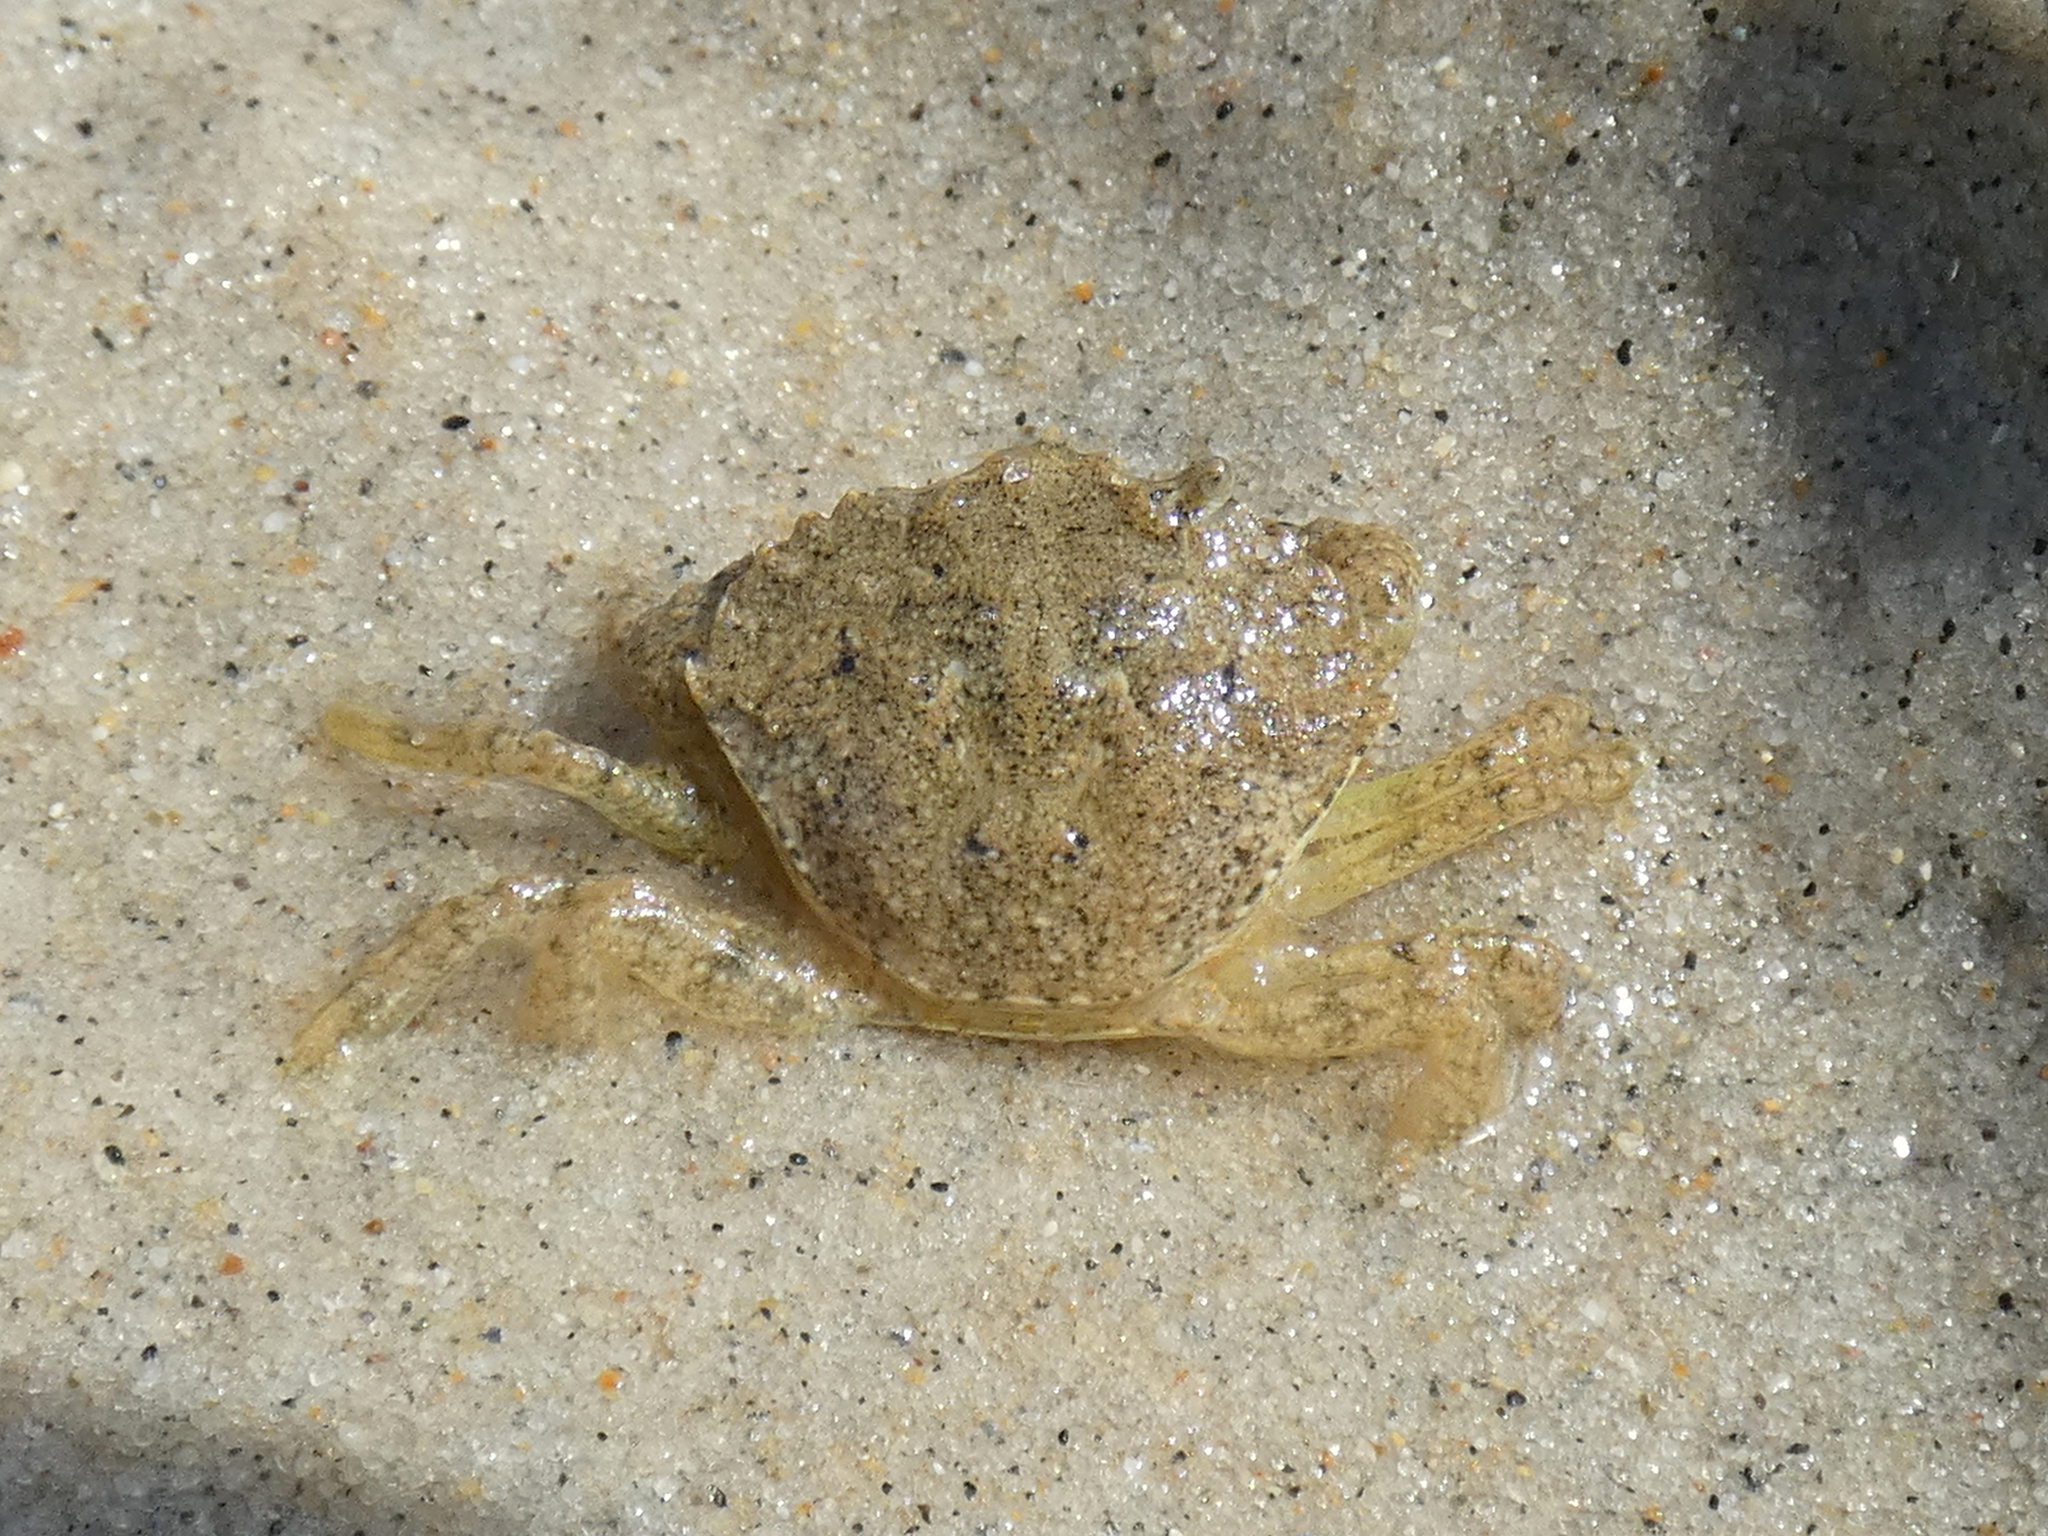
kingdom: Animalia
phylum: Arthropoda
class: Malacostraca
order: Decapoda
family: Carcinidae
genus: Carcinus
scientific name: Carcinus maenas
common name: European green crab
